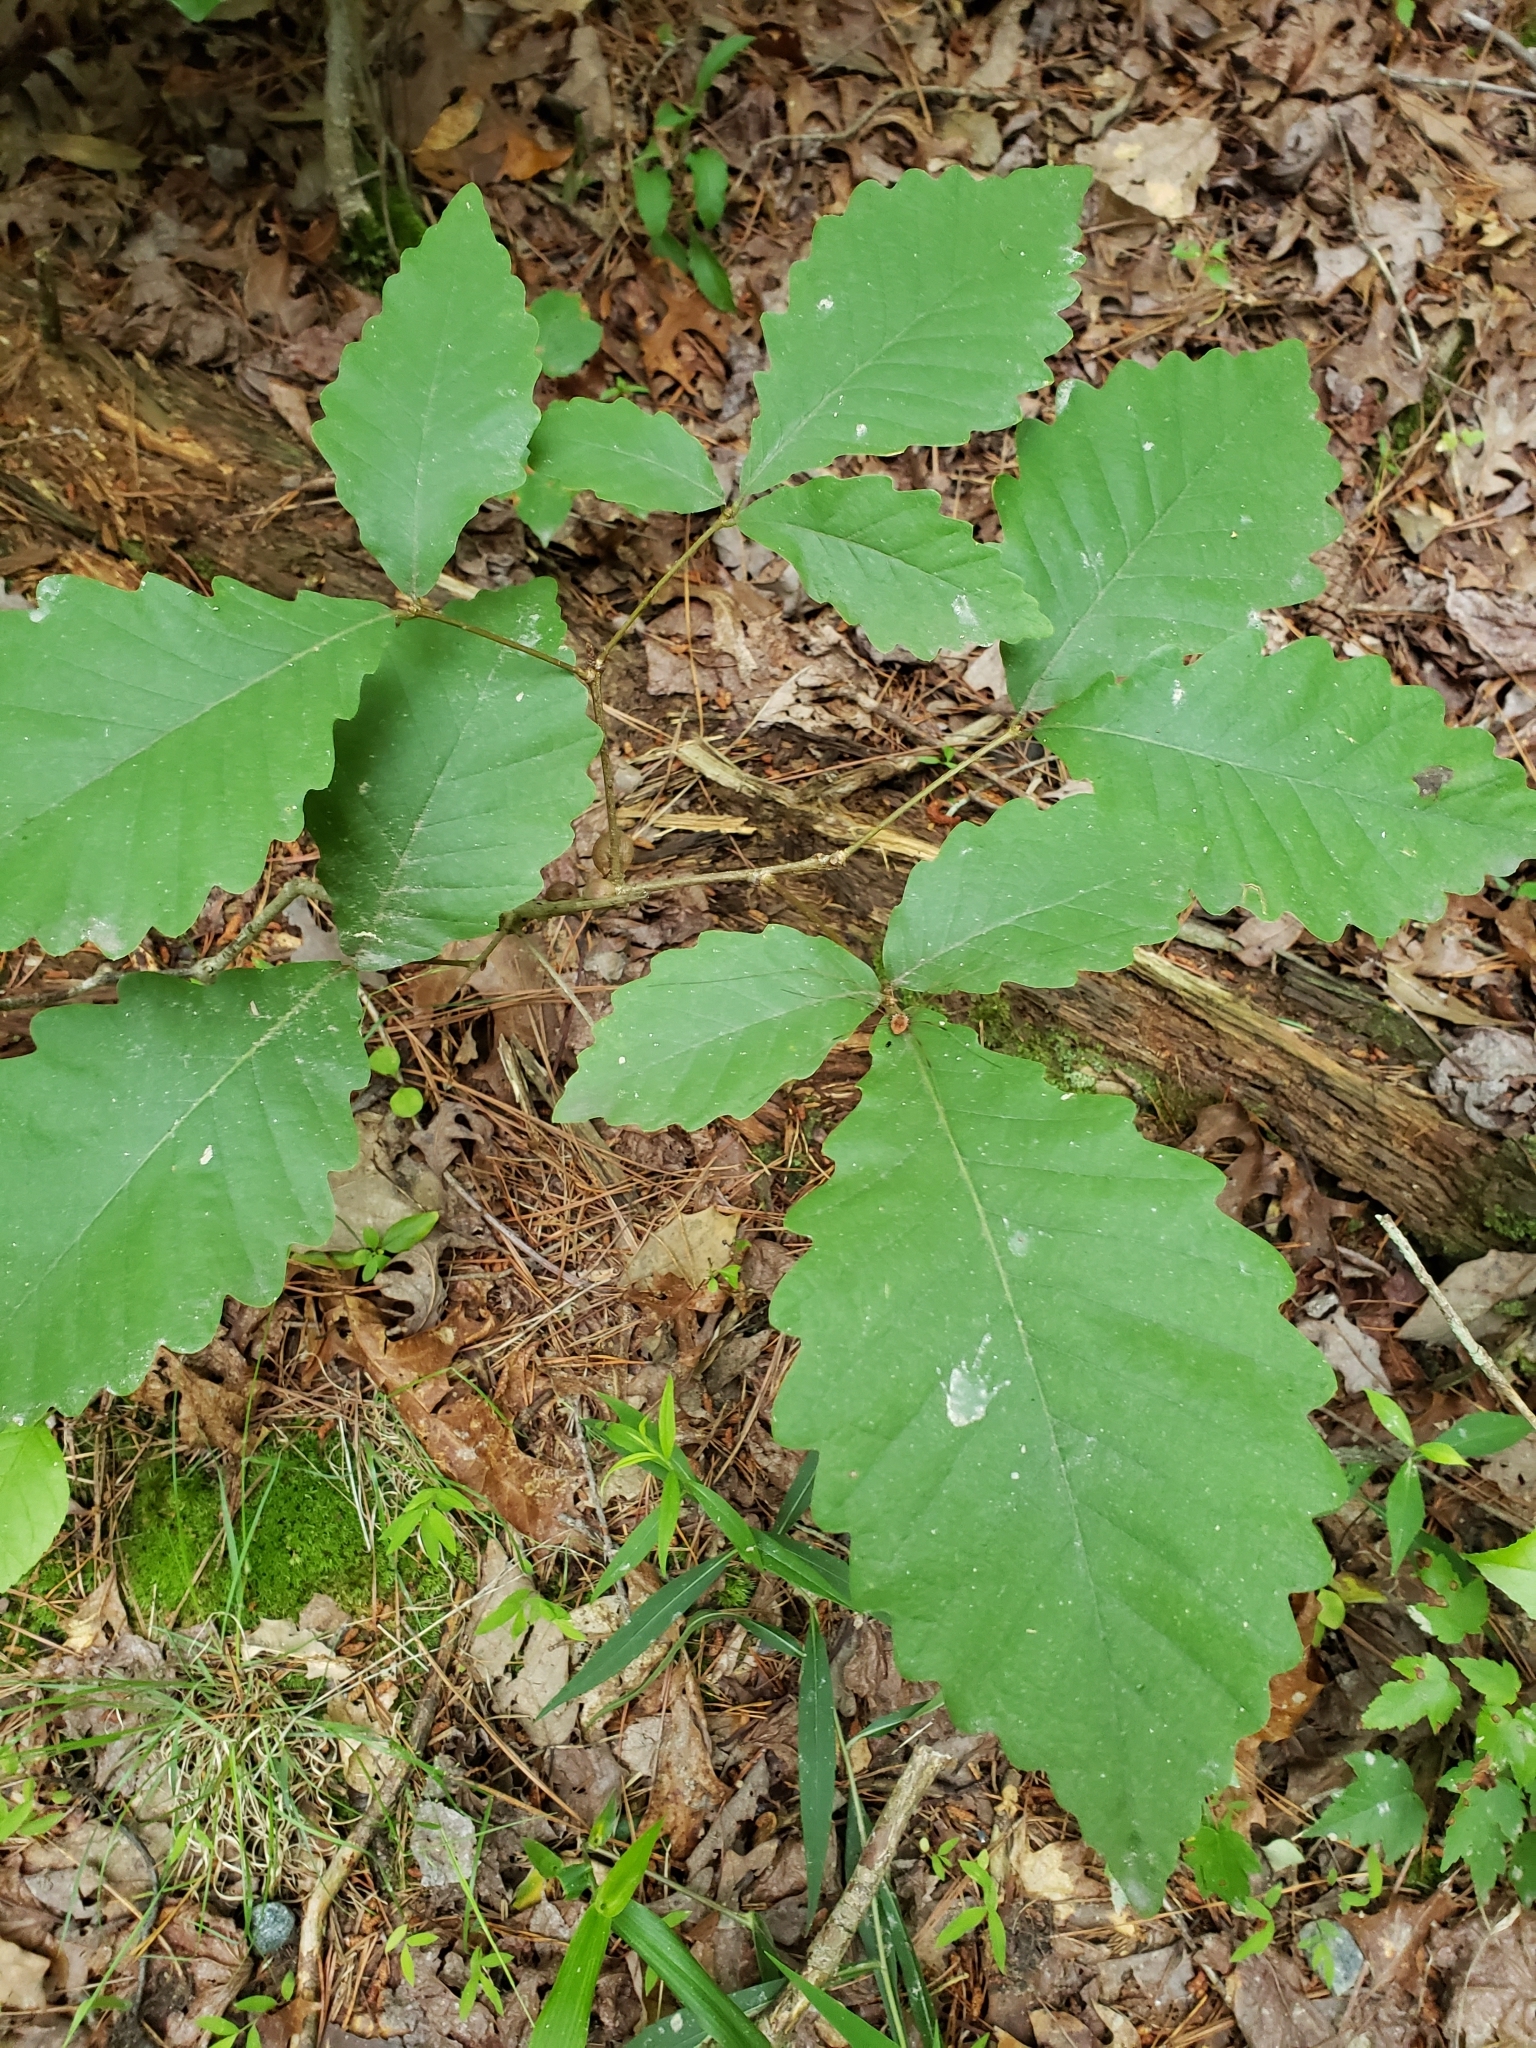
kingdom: Plantae
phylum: Tracheophyta
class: Magnoliopsida
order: Fagales
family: Fagaceae
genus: Quercus
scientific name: Quercus montana
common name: Chestnut oak
